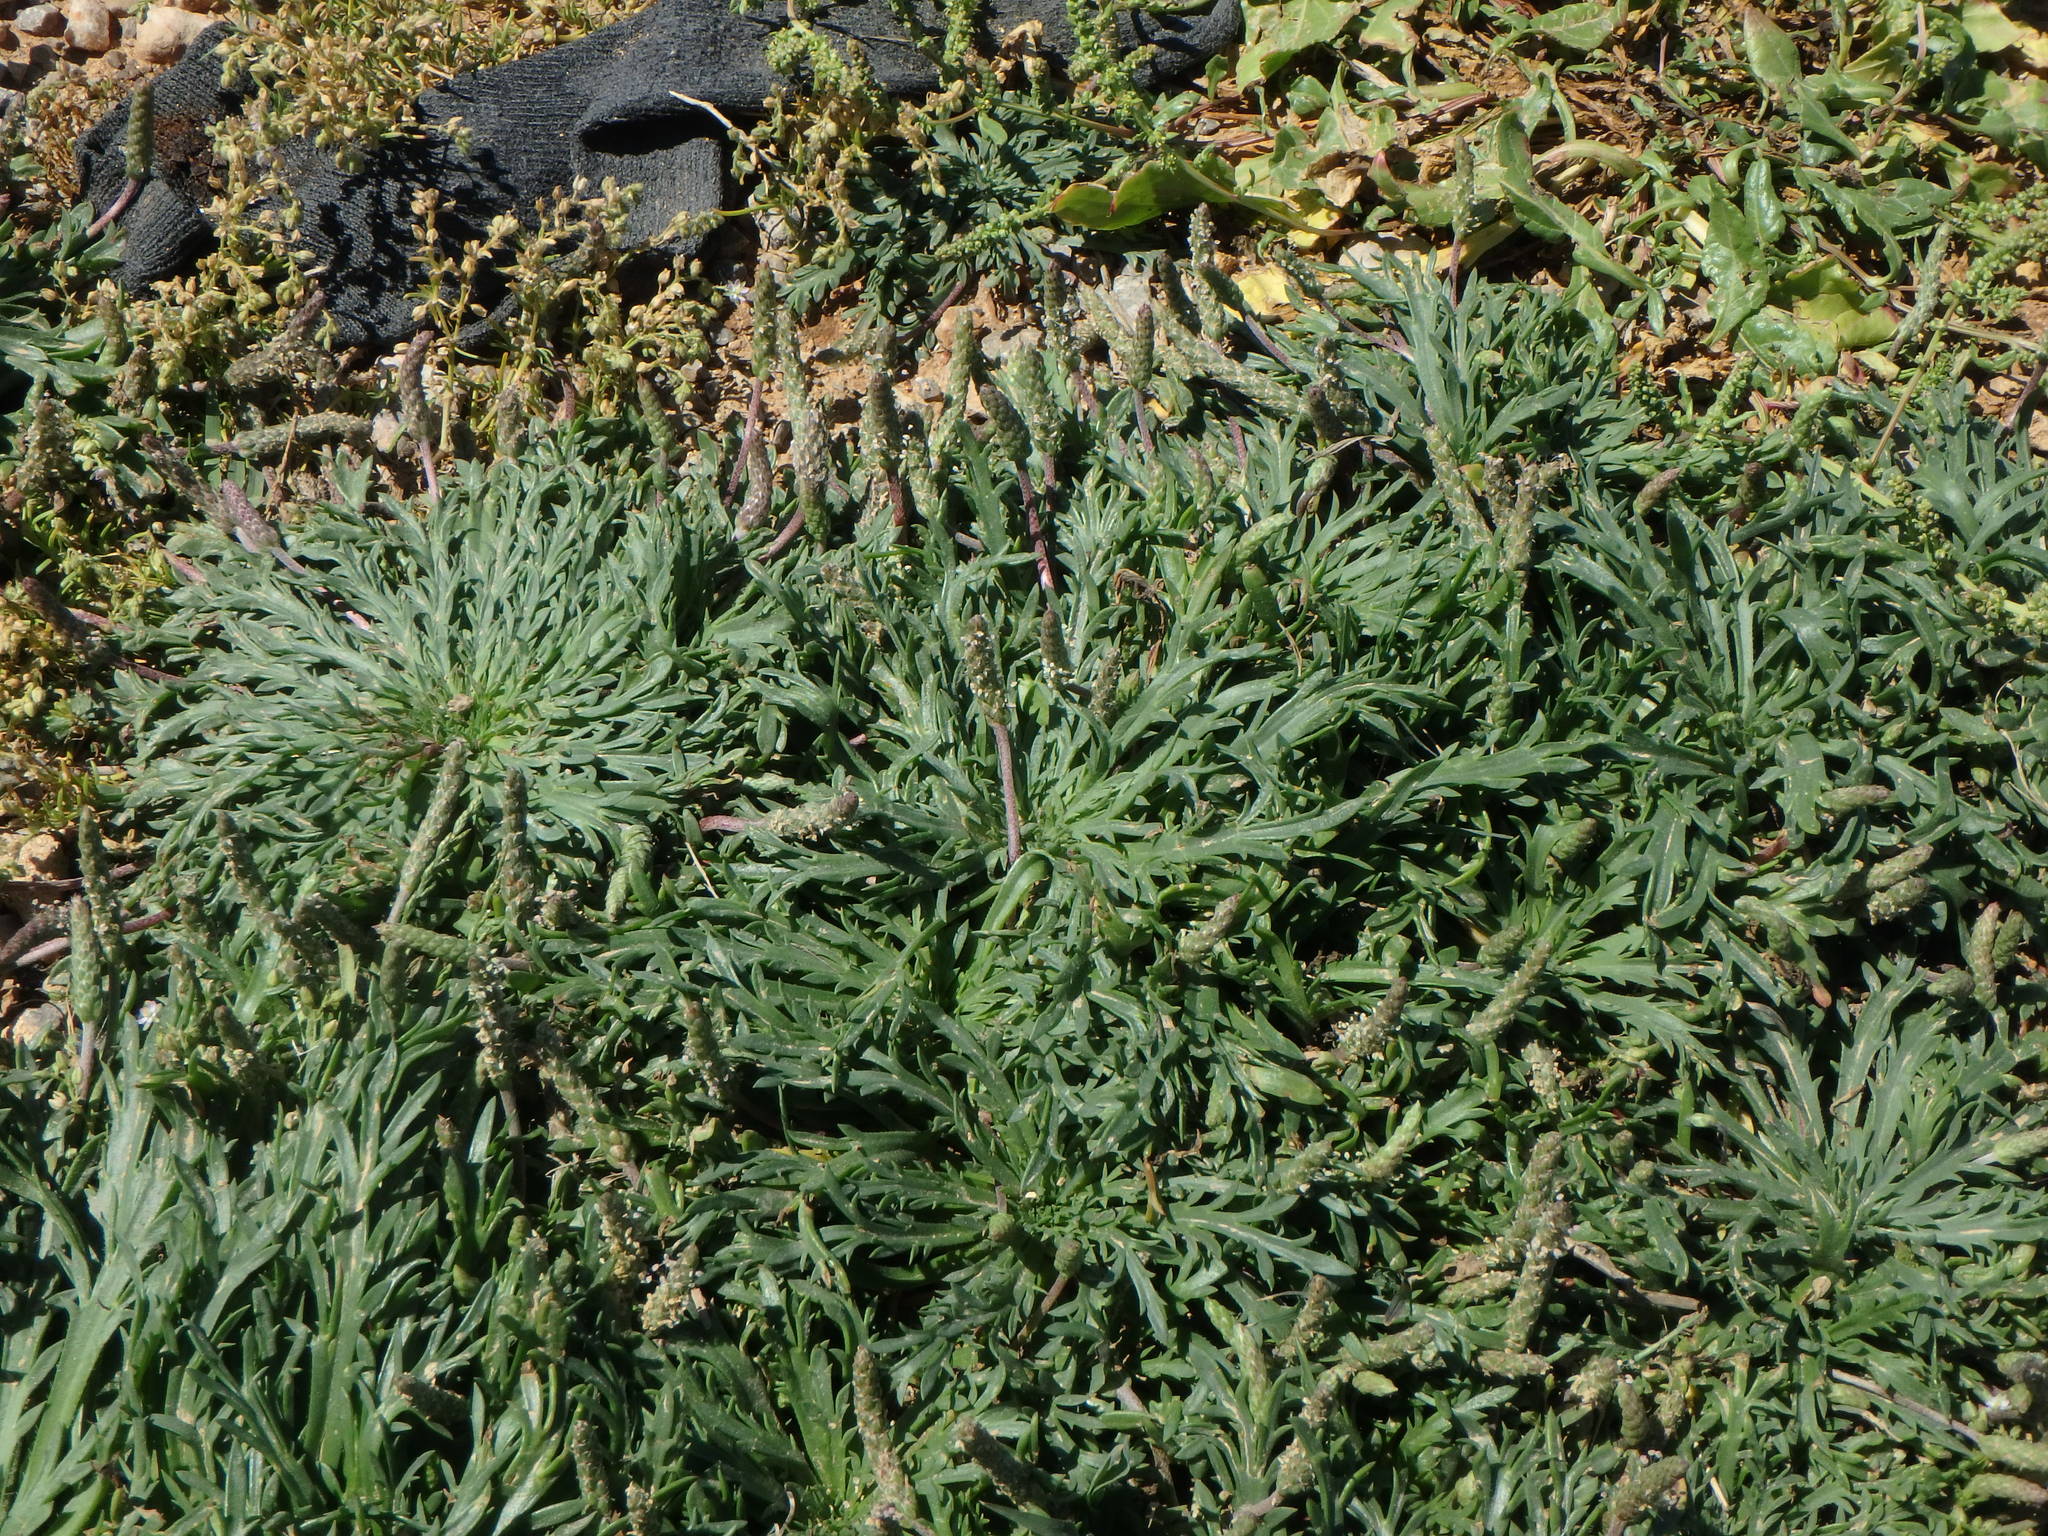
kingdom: Plantae
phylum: Tracheophyta
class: Magnoliopsida
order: Lamiales
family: Plantaginaceae
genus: Plantago
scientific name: Plantago coronopus
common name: Buck's-horn plantain
